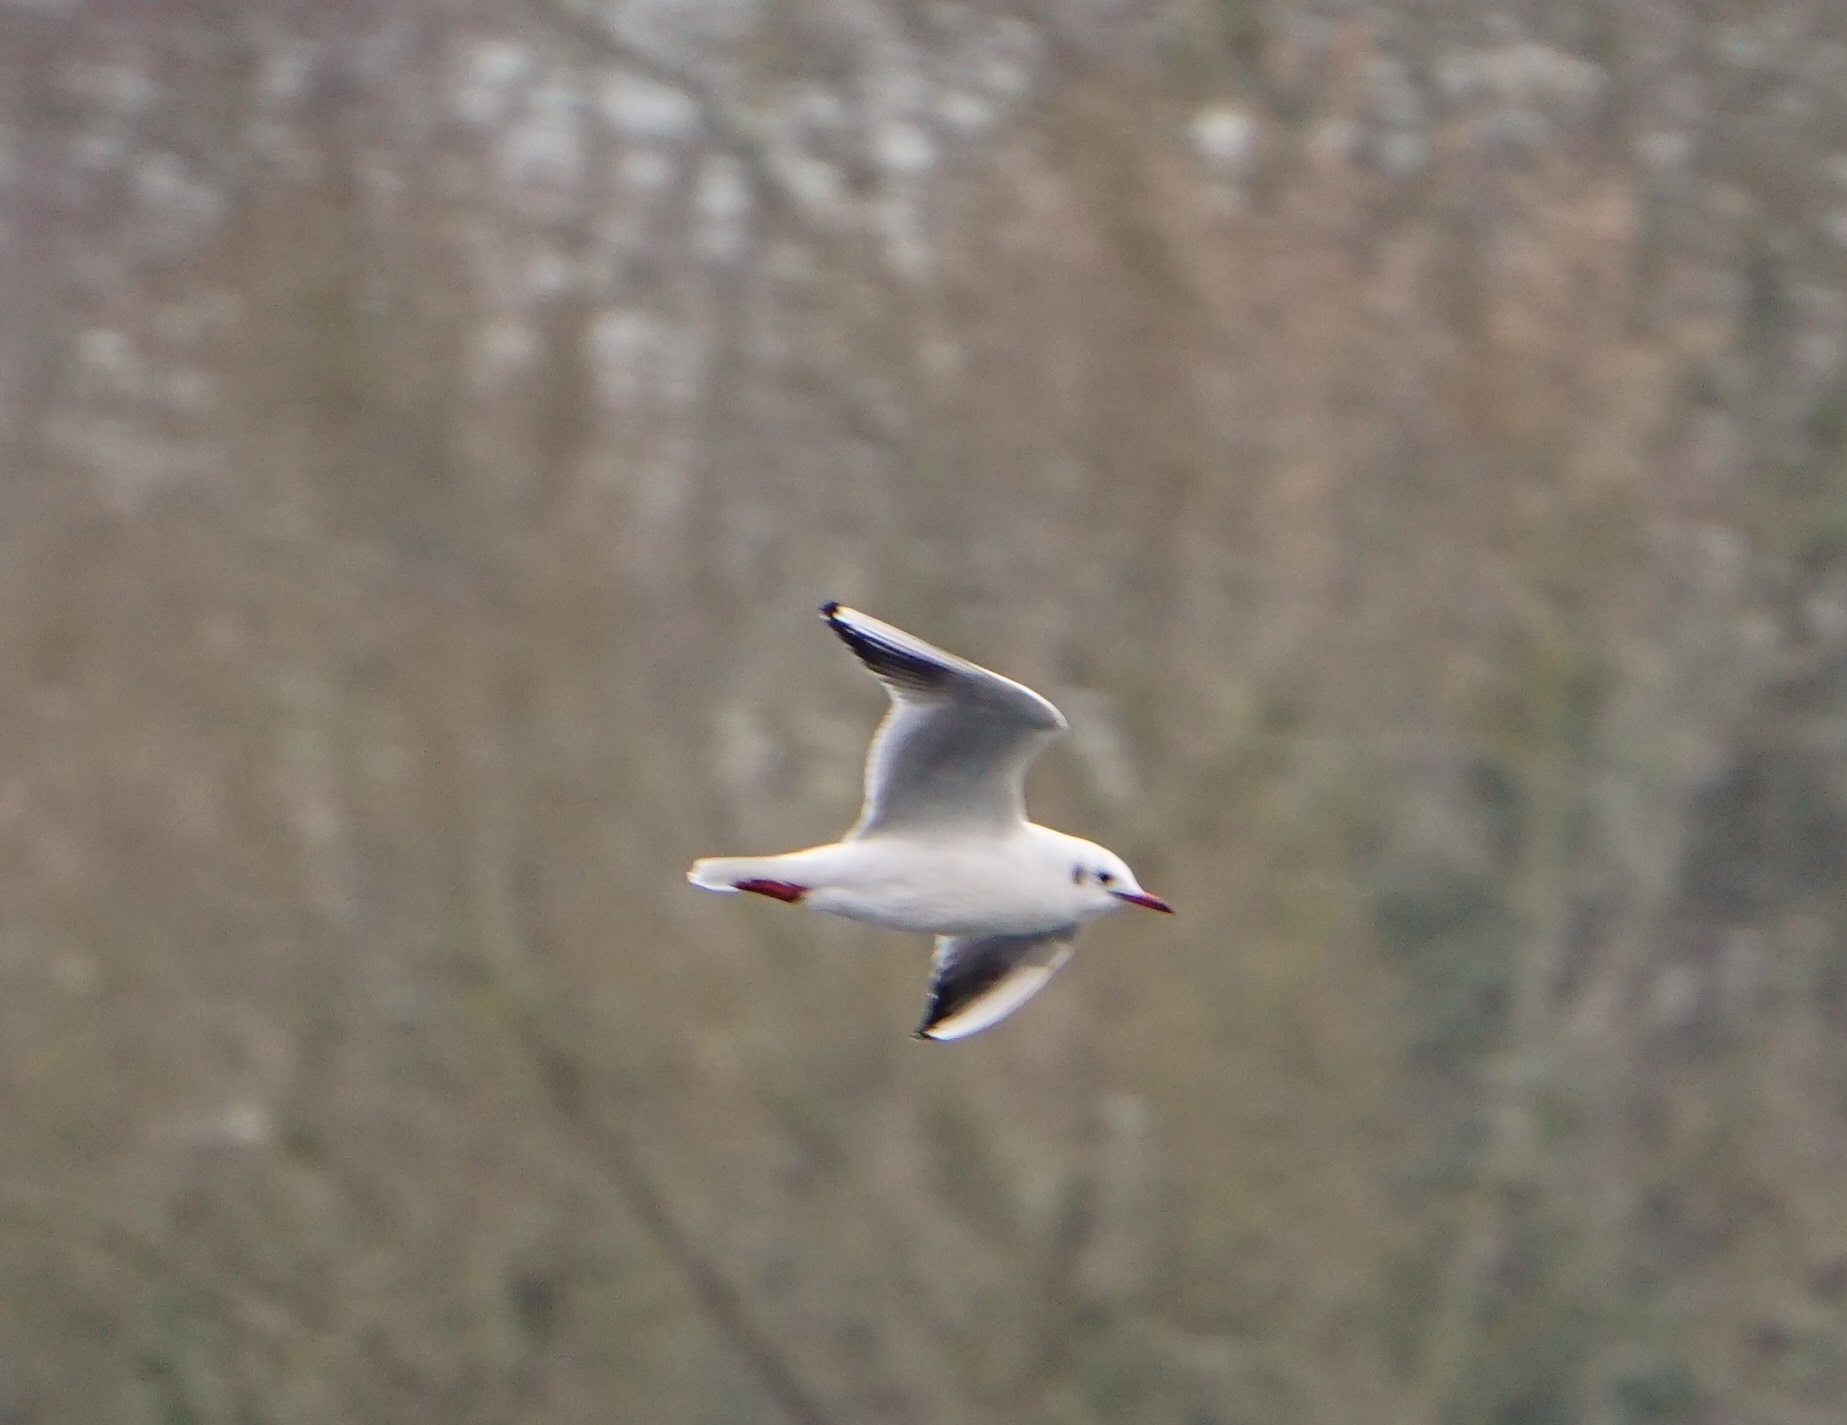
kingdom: Animalia
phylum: Chordata
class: Aves
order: Charadriiformes
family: Laridae
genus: Chroicocephalus
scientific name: Chroicocephalus ridibundus
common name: Black-headed gull
